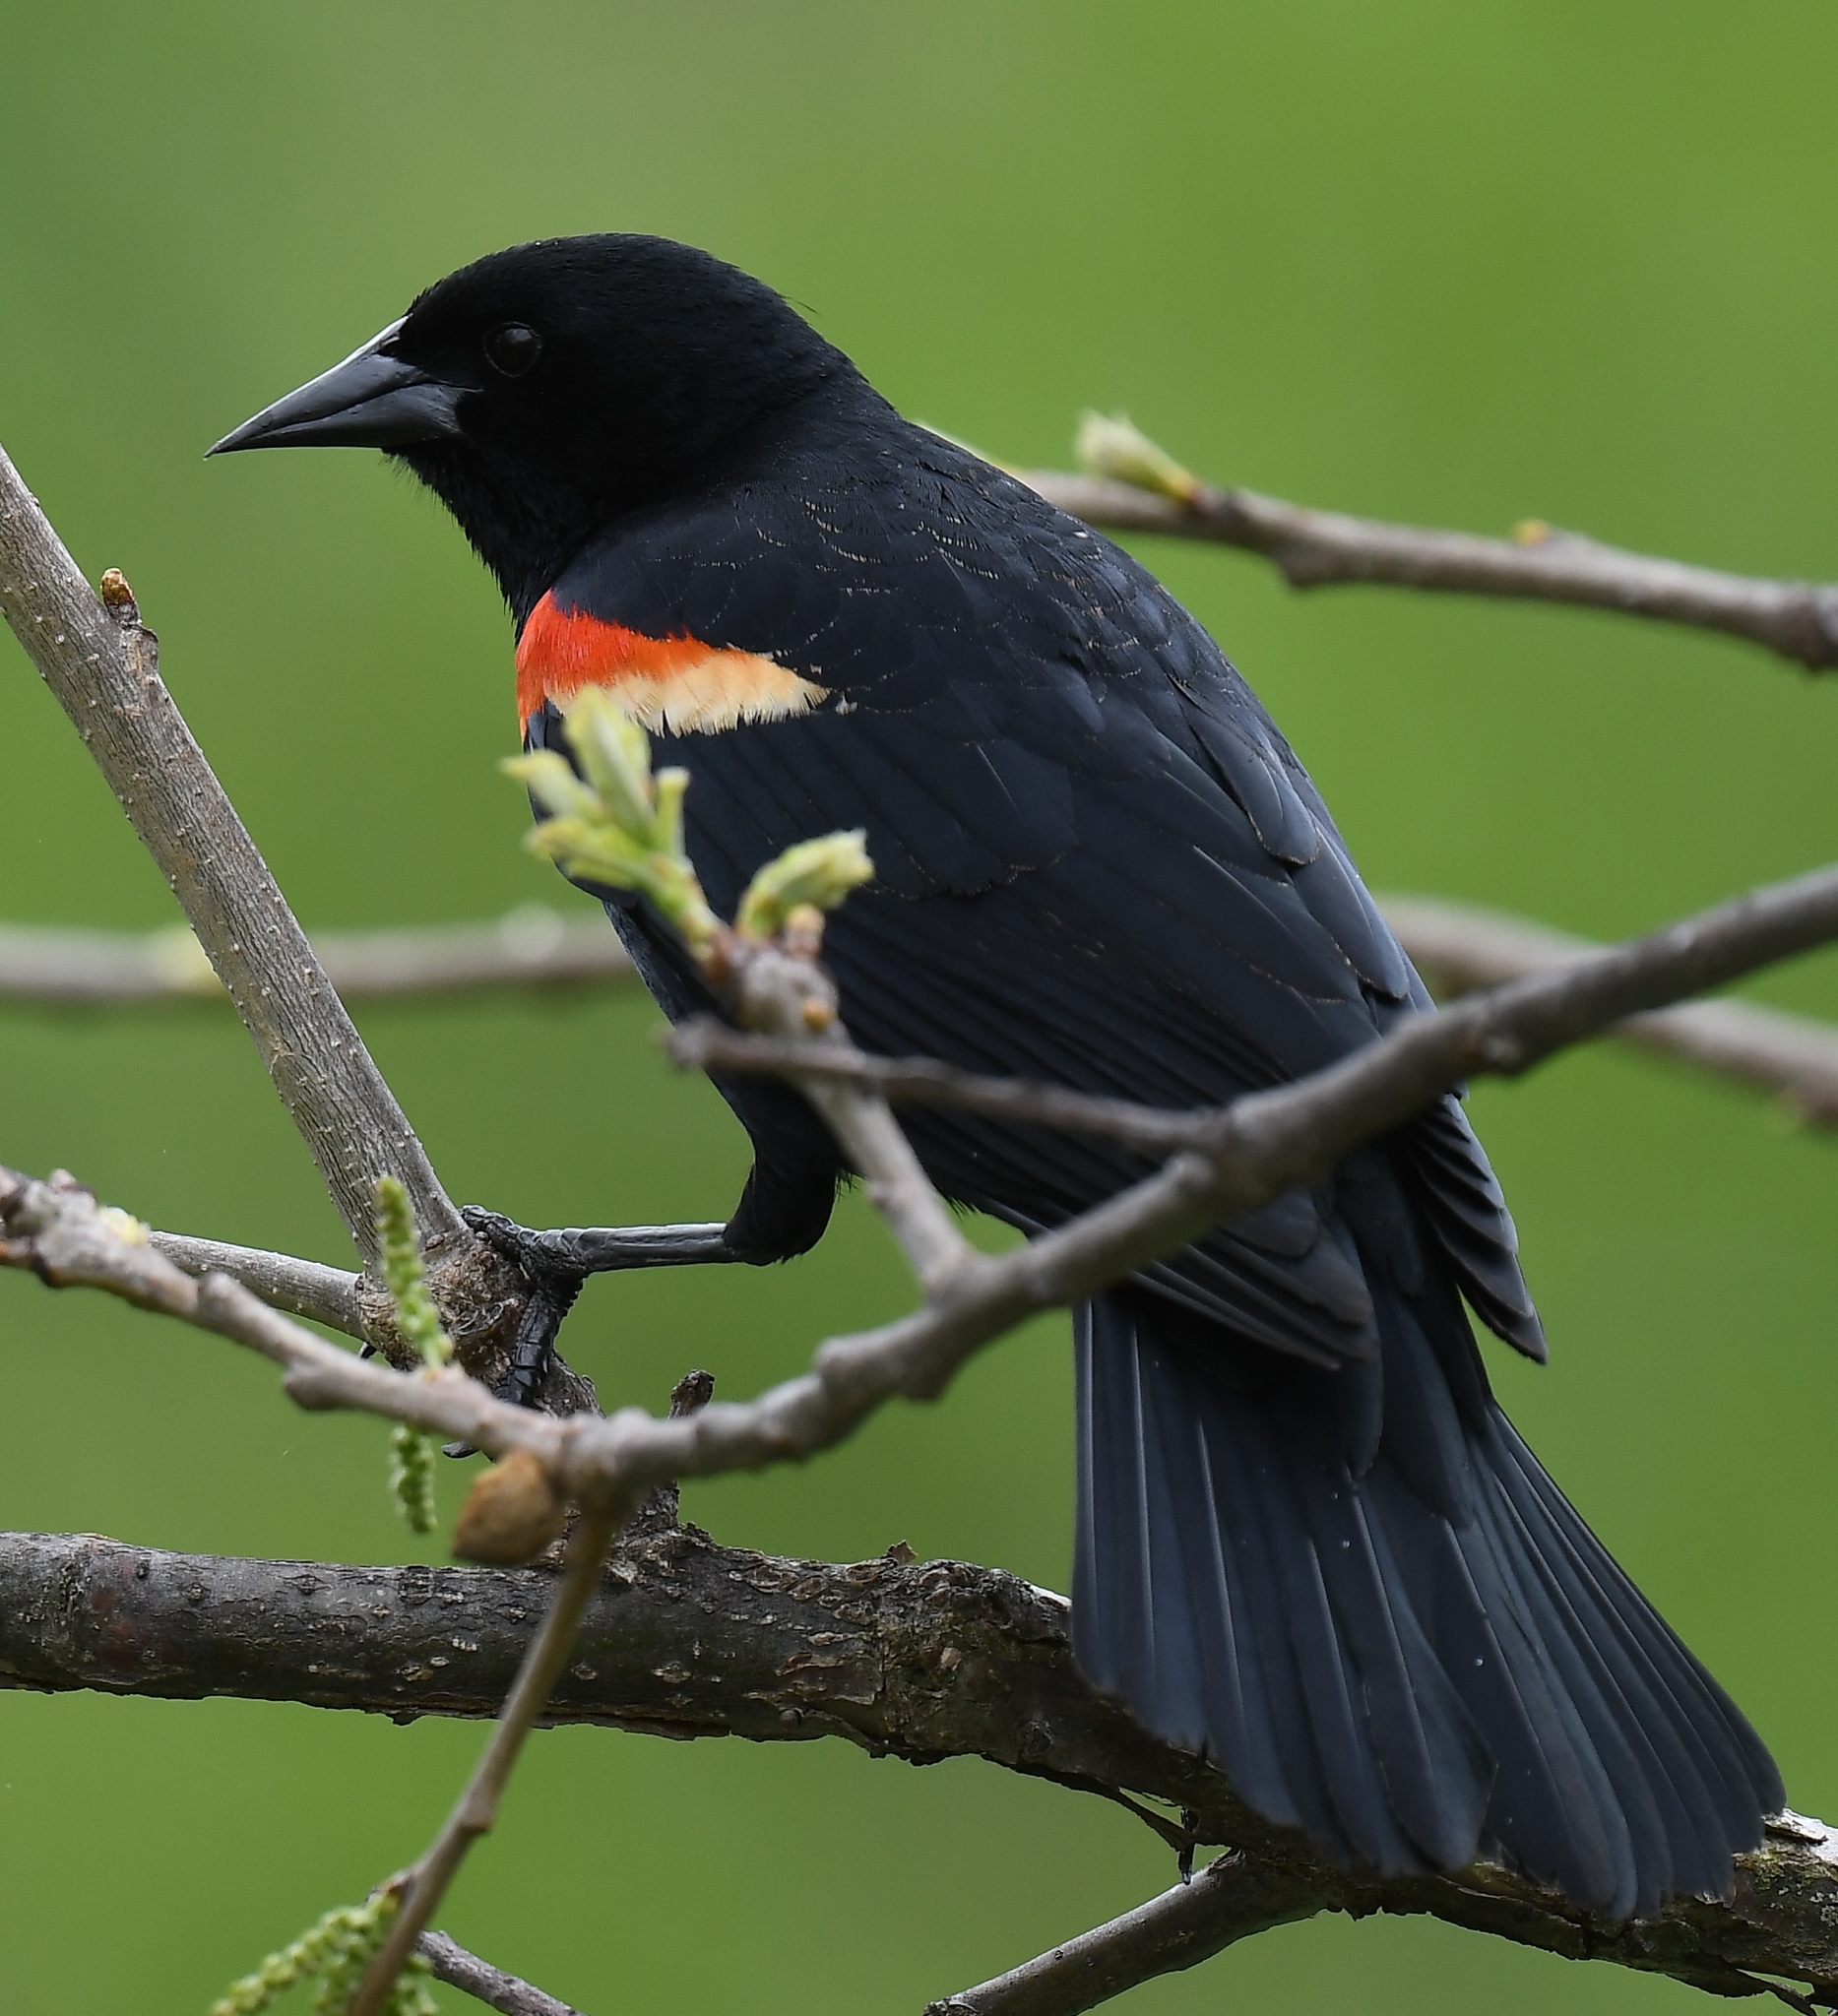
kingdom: Animalia
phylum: Chordata
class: Aves
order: Passeriformes
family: Icteridae
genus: Agelaius
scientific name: Agelaius phoeniceus
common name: Red-winged blackbird
